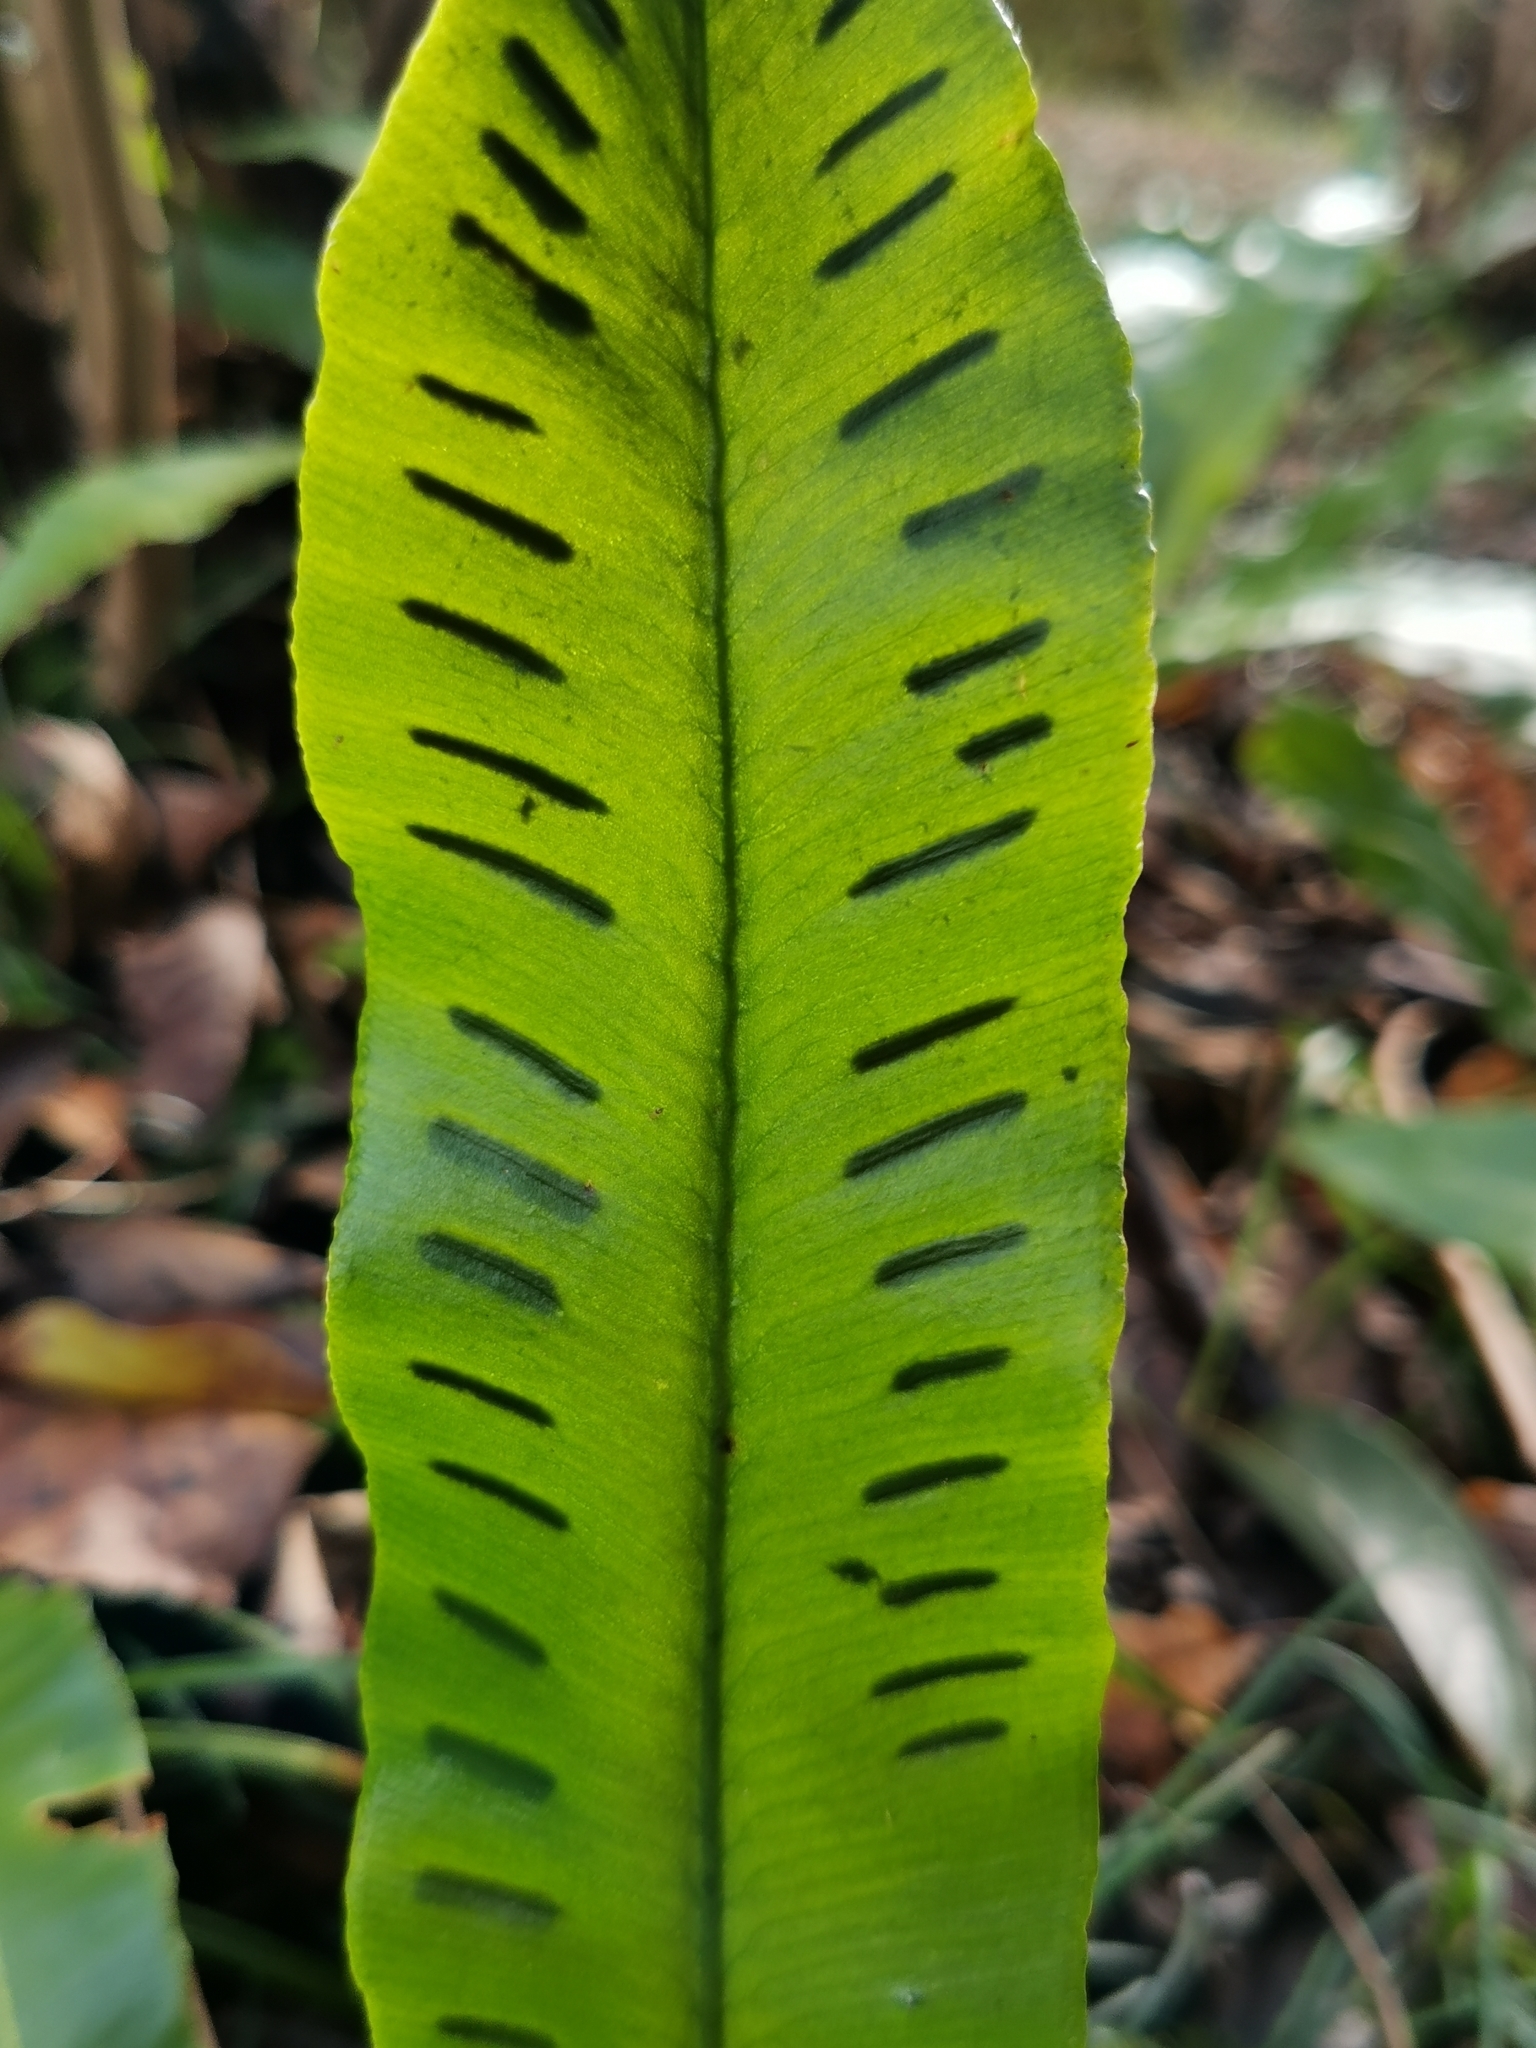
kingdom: Plantae
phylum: Tracheophyta
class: Polypodiopsida
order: Polypodiales
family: Aspleniaceae
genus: Asplenium
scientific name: Asplenium scolopendrium
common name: Hart's-tongue fern
